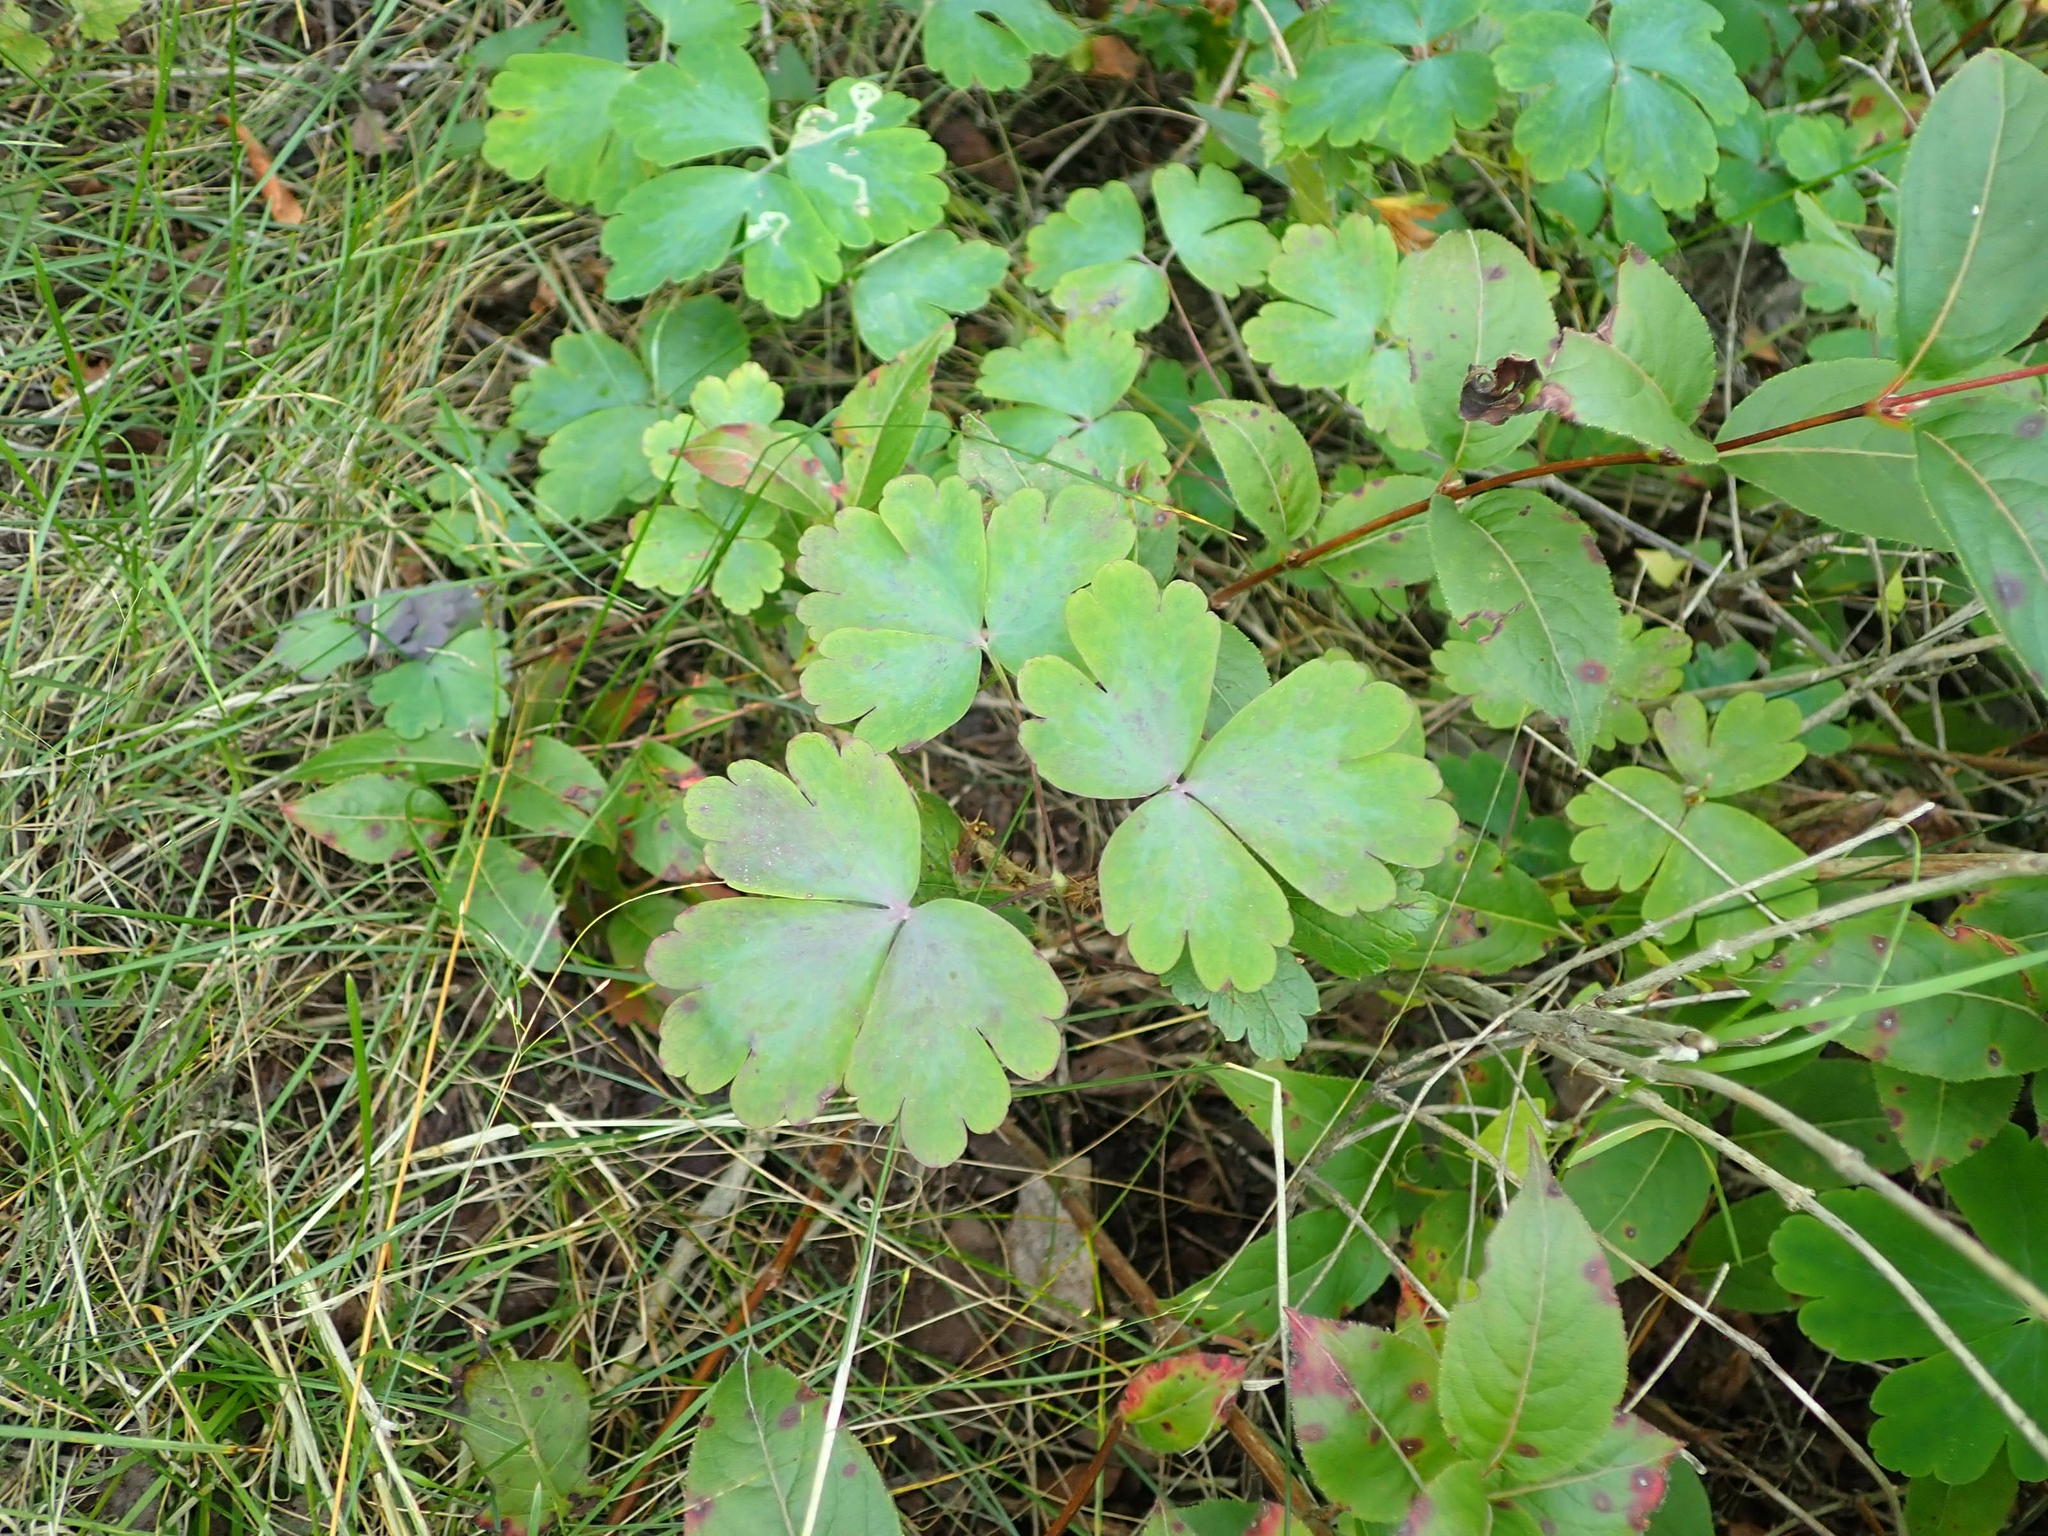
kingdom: Plantae
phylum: Tracheophyta
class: Magnoliopsida
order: Ranunculales
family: Ranunculaceae
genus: Aquilegia
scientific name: Aquilegia canadensis
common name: American columbine
